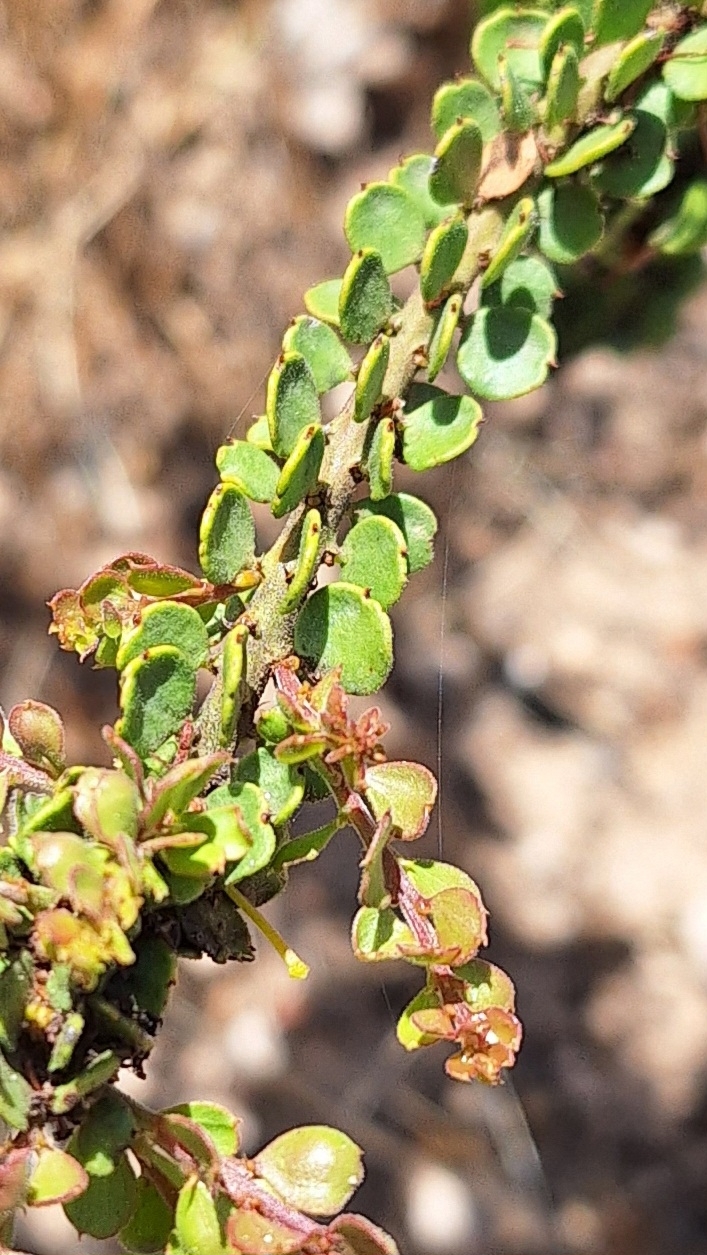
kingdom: Plantae
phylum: Tracheophyta
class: Magnoliopsida
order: Fabales
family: Fabaceae
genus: Acacia
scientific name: Acacia acinacea
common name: Gold-dust acacia
